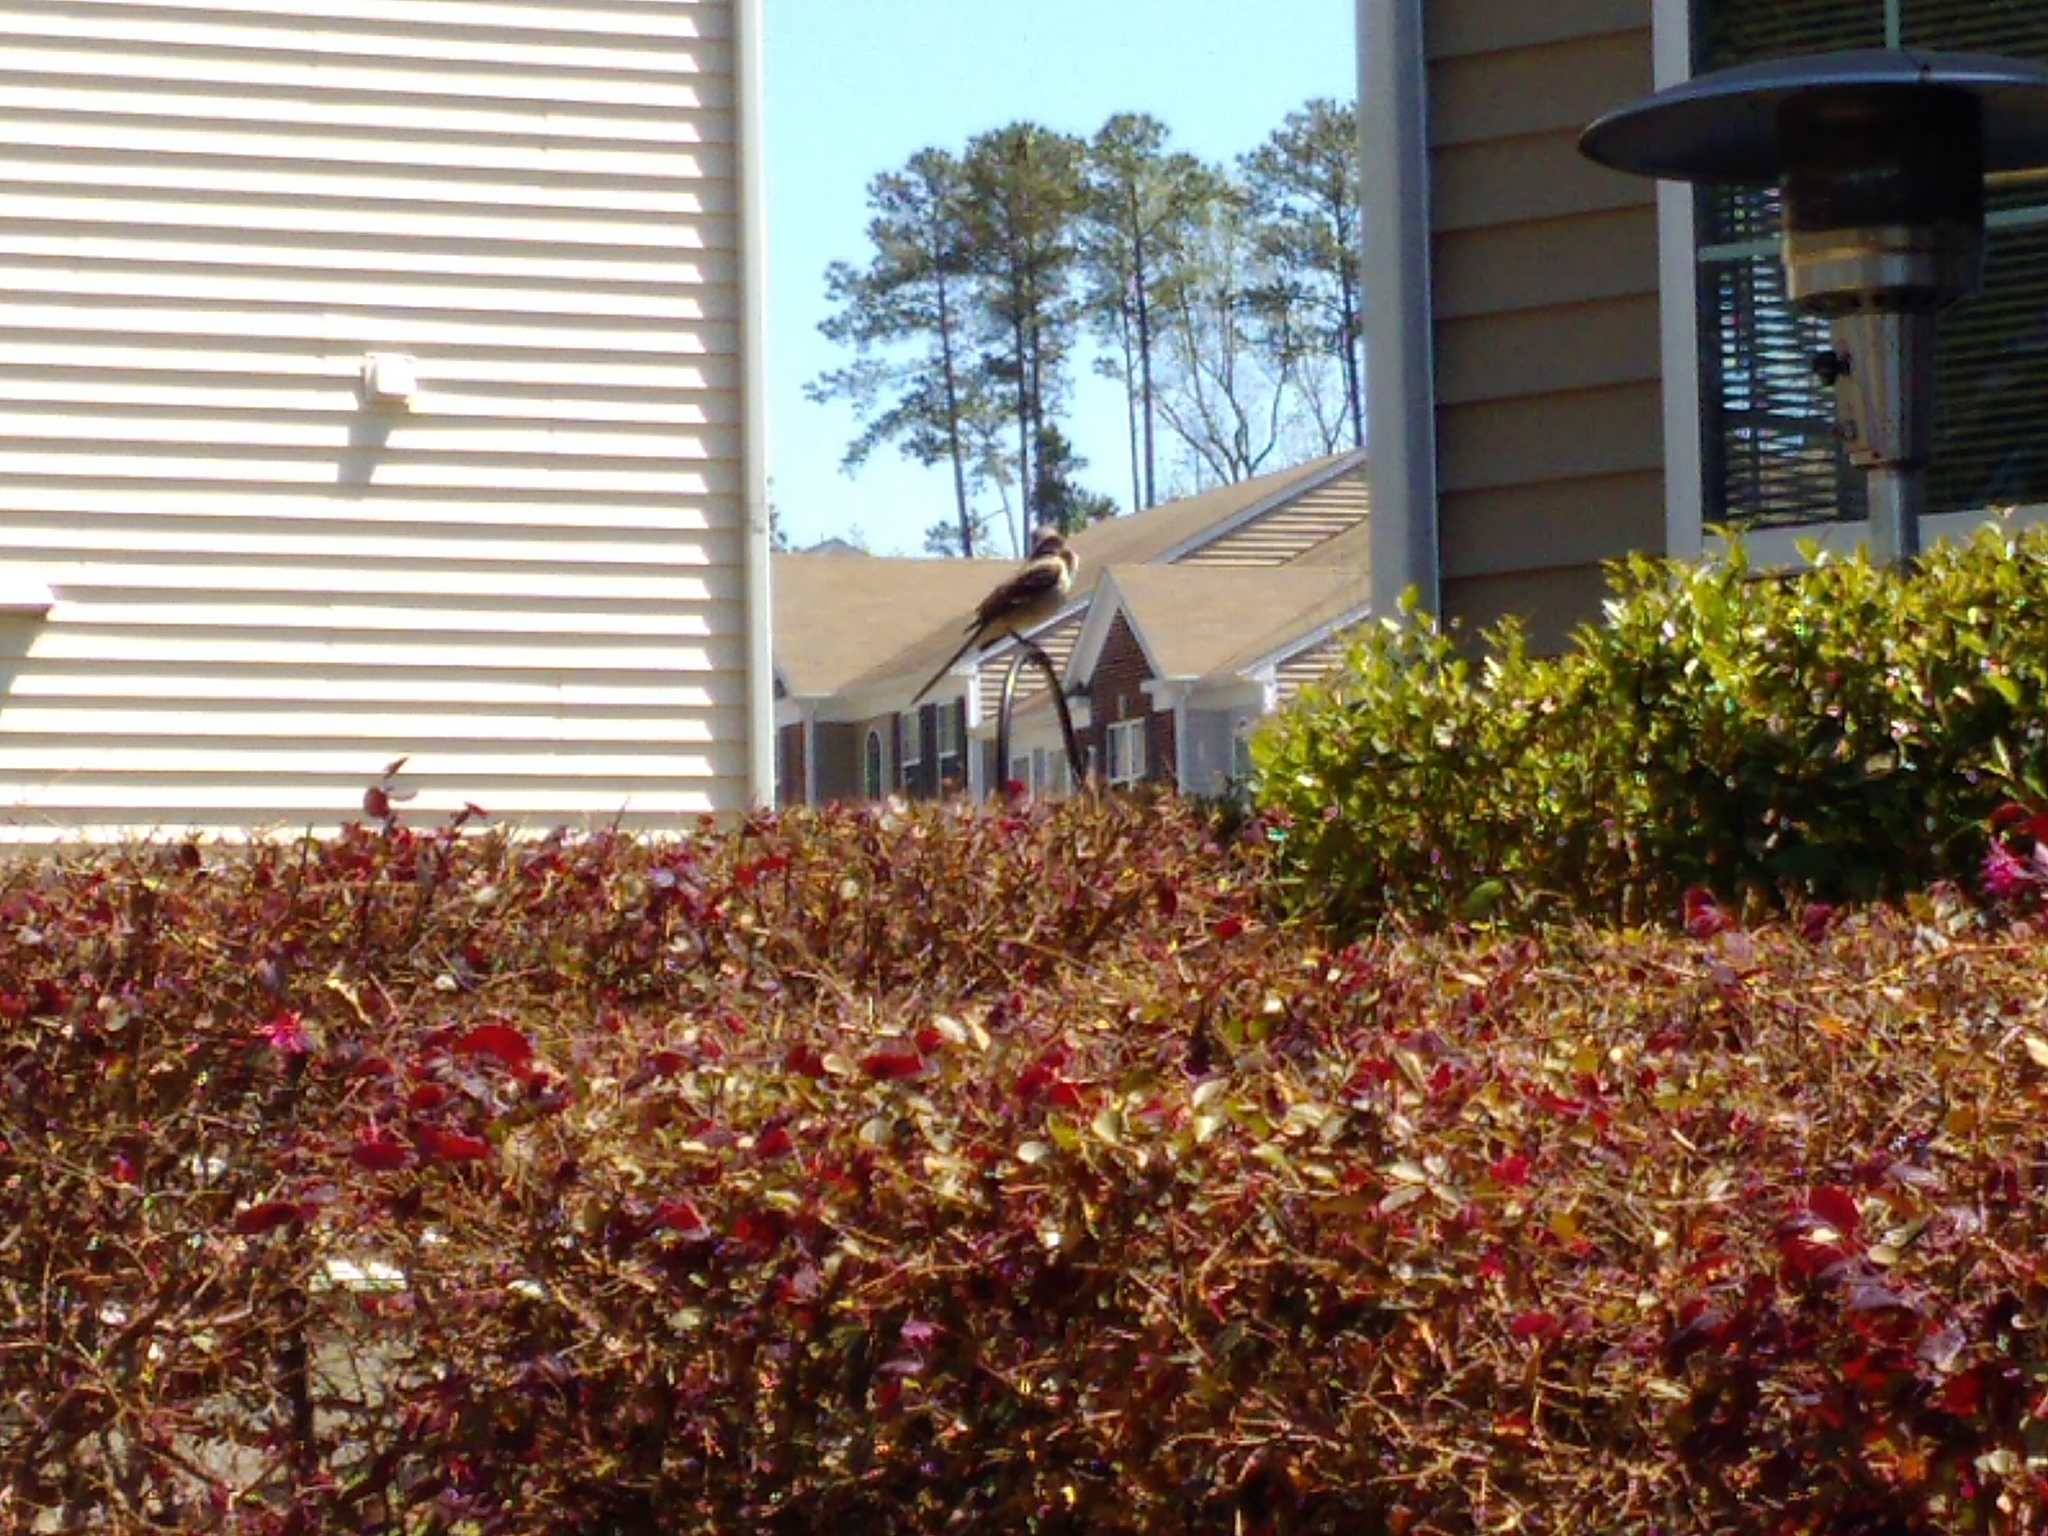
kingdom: Animalia
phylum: Chordata
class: Aves
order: Passeriformes
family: Mimidae
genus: Mimus
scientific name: Mimus polyglottos
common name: Northern mockingbird
